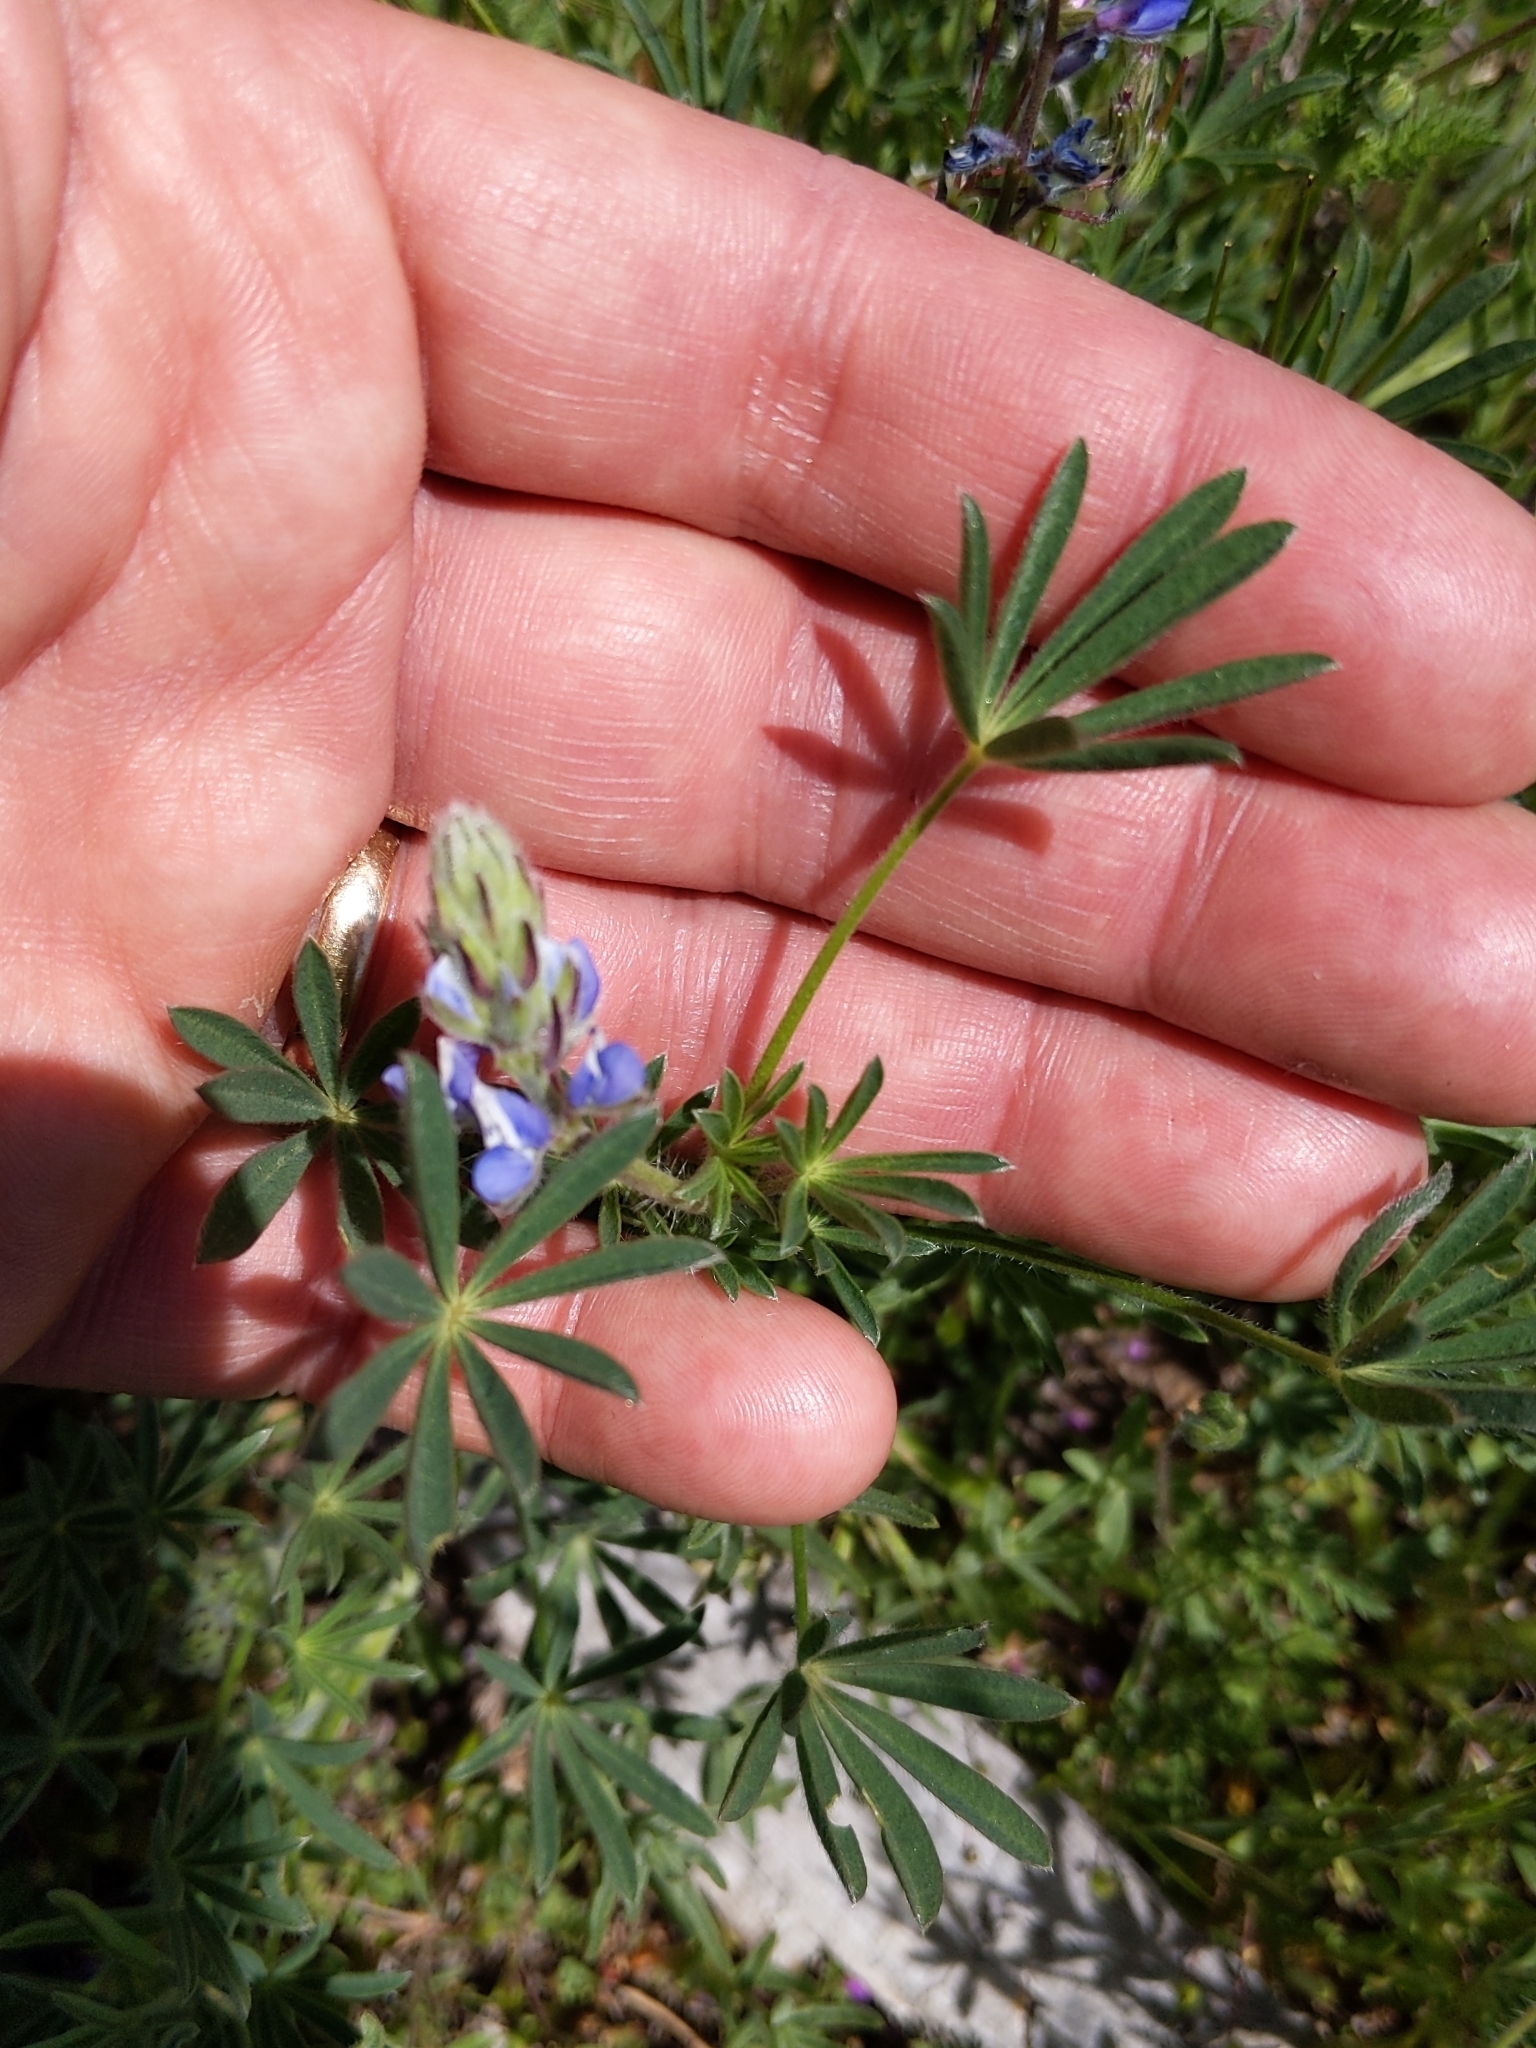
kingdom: Plantae
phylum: Tracheophyta
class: Magnoliopsida
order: Fabales
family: Fabaceae
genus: Lupinus
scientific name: Lupinus bicolor
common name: Miniature lupine
